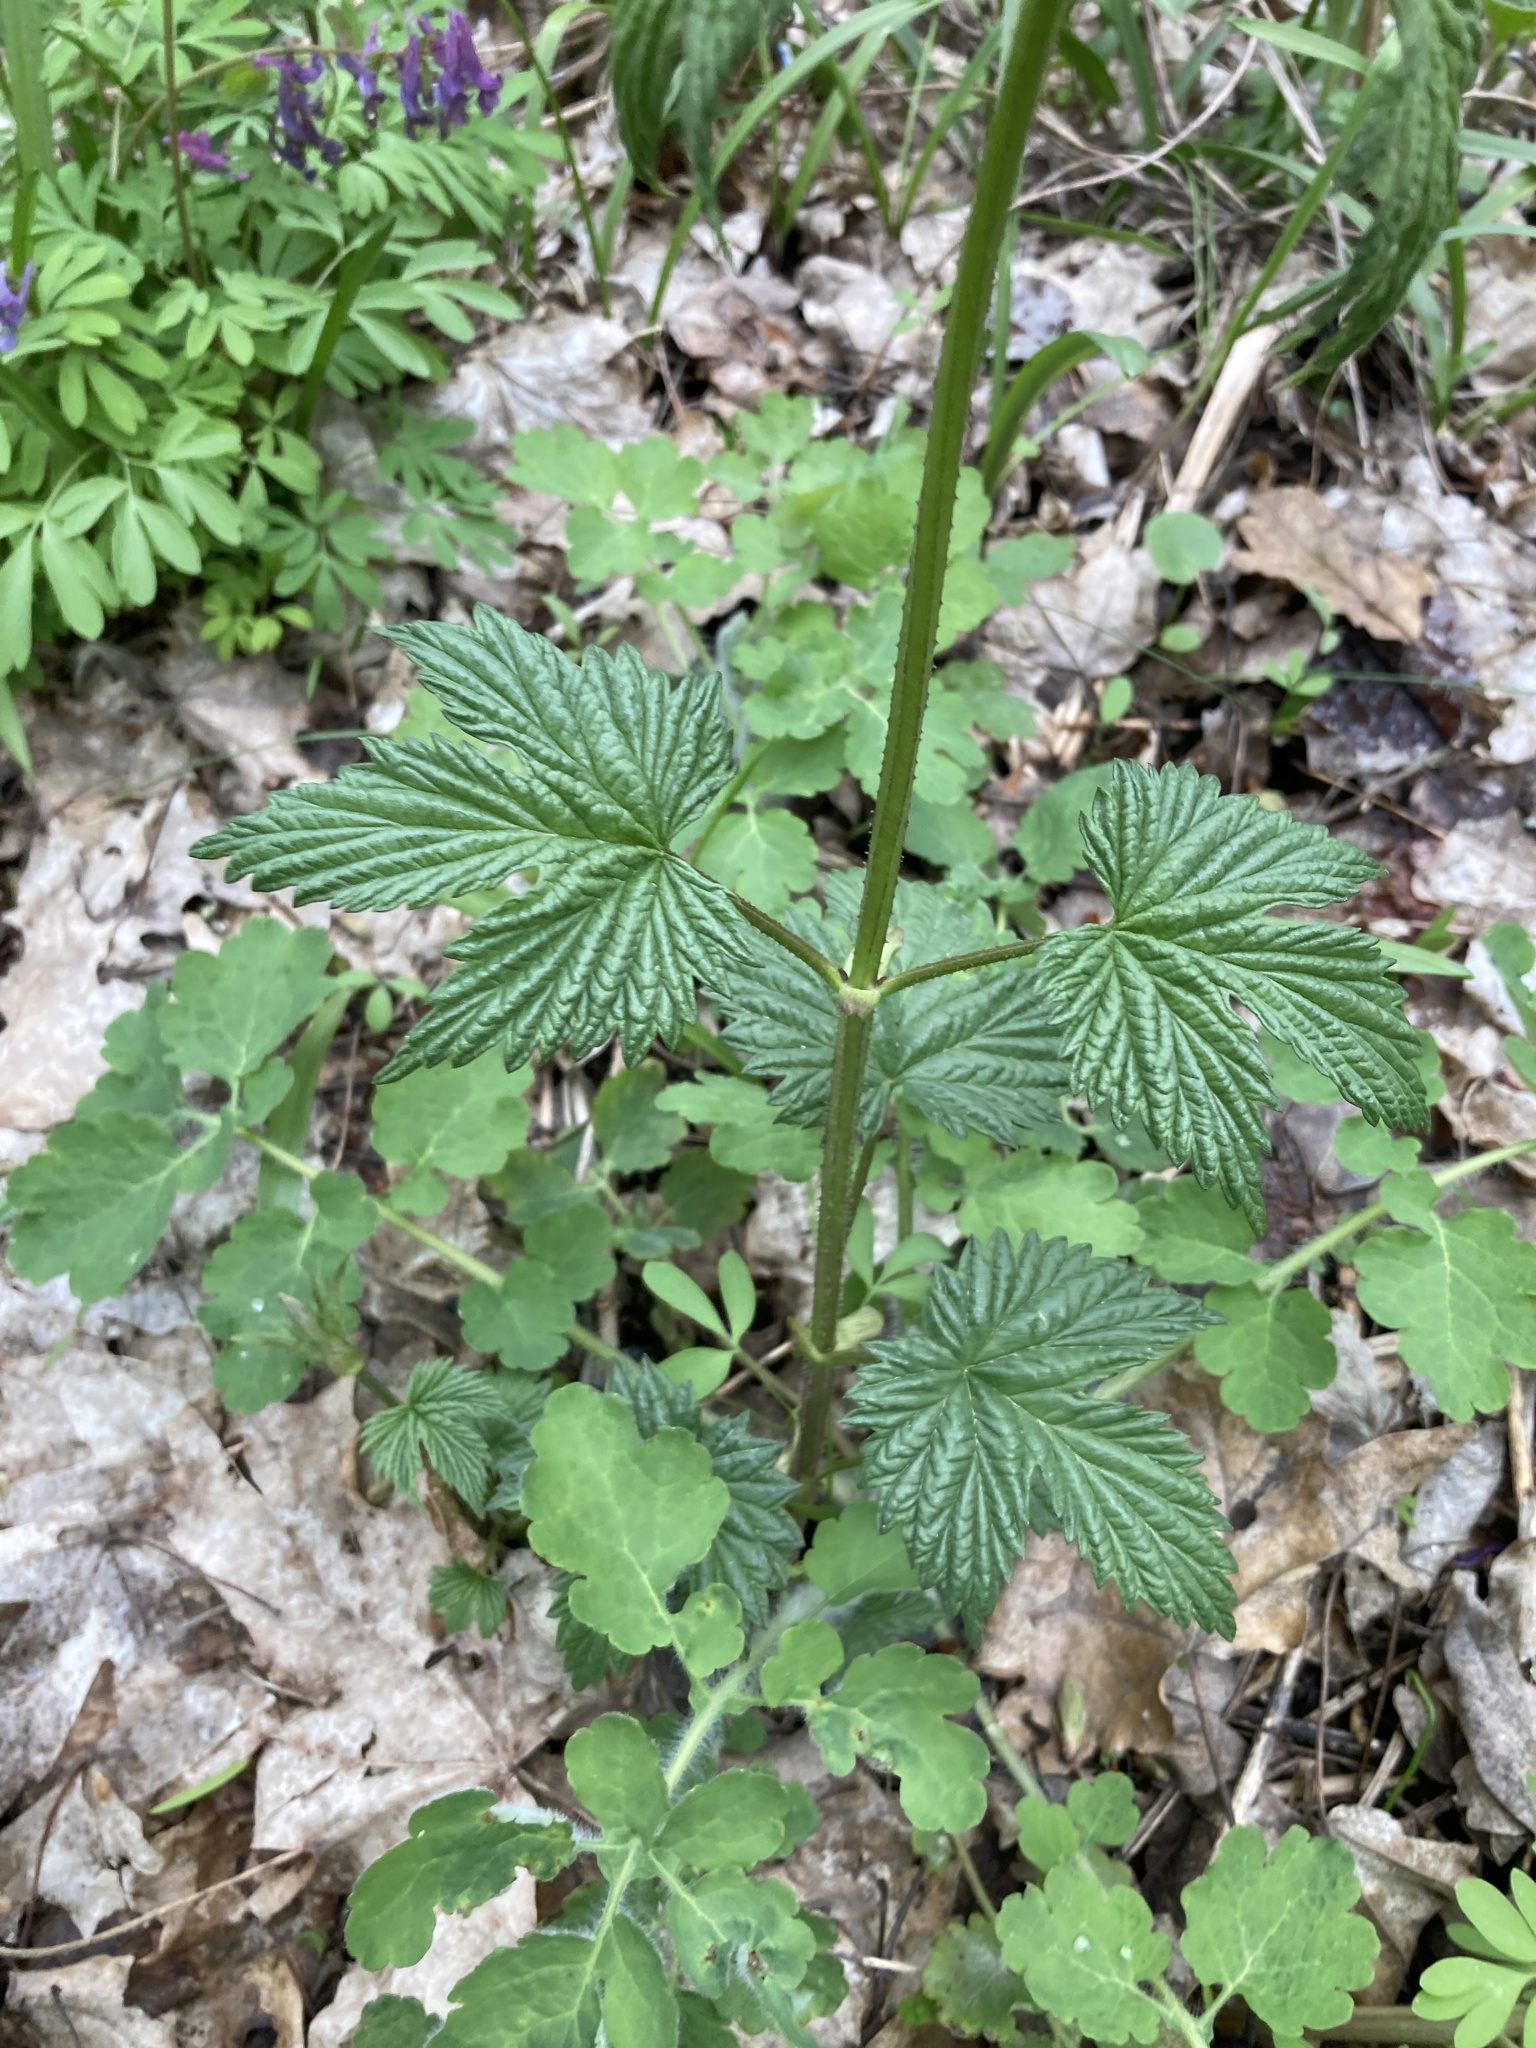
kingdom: Plantae
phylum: Tracheophyta
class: Magnoliopsida
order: Rosales
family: Cannabaceae
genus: Humulus
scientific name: Humulus lupulus
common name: Hop
